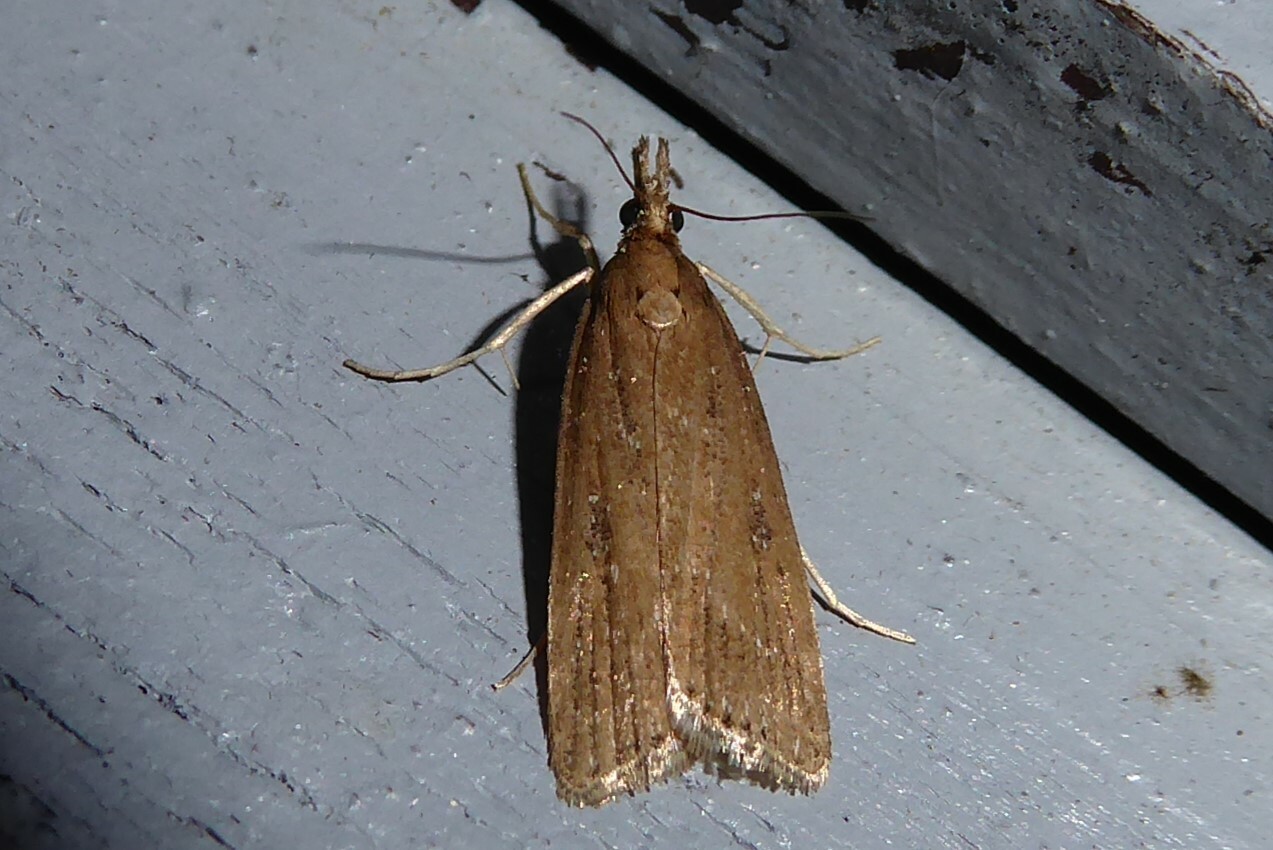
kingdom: Animalia
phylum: Arthropoda
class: Insecta
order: Lepidoptera
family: Crambidae
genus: Eudonia
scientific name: Eudonia octophora
